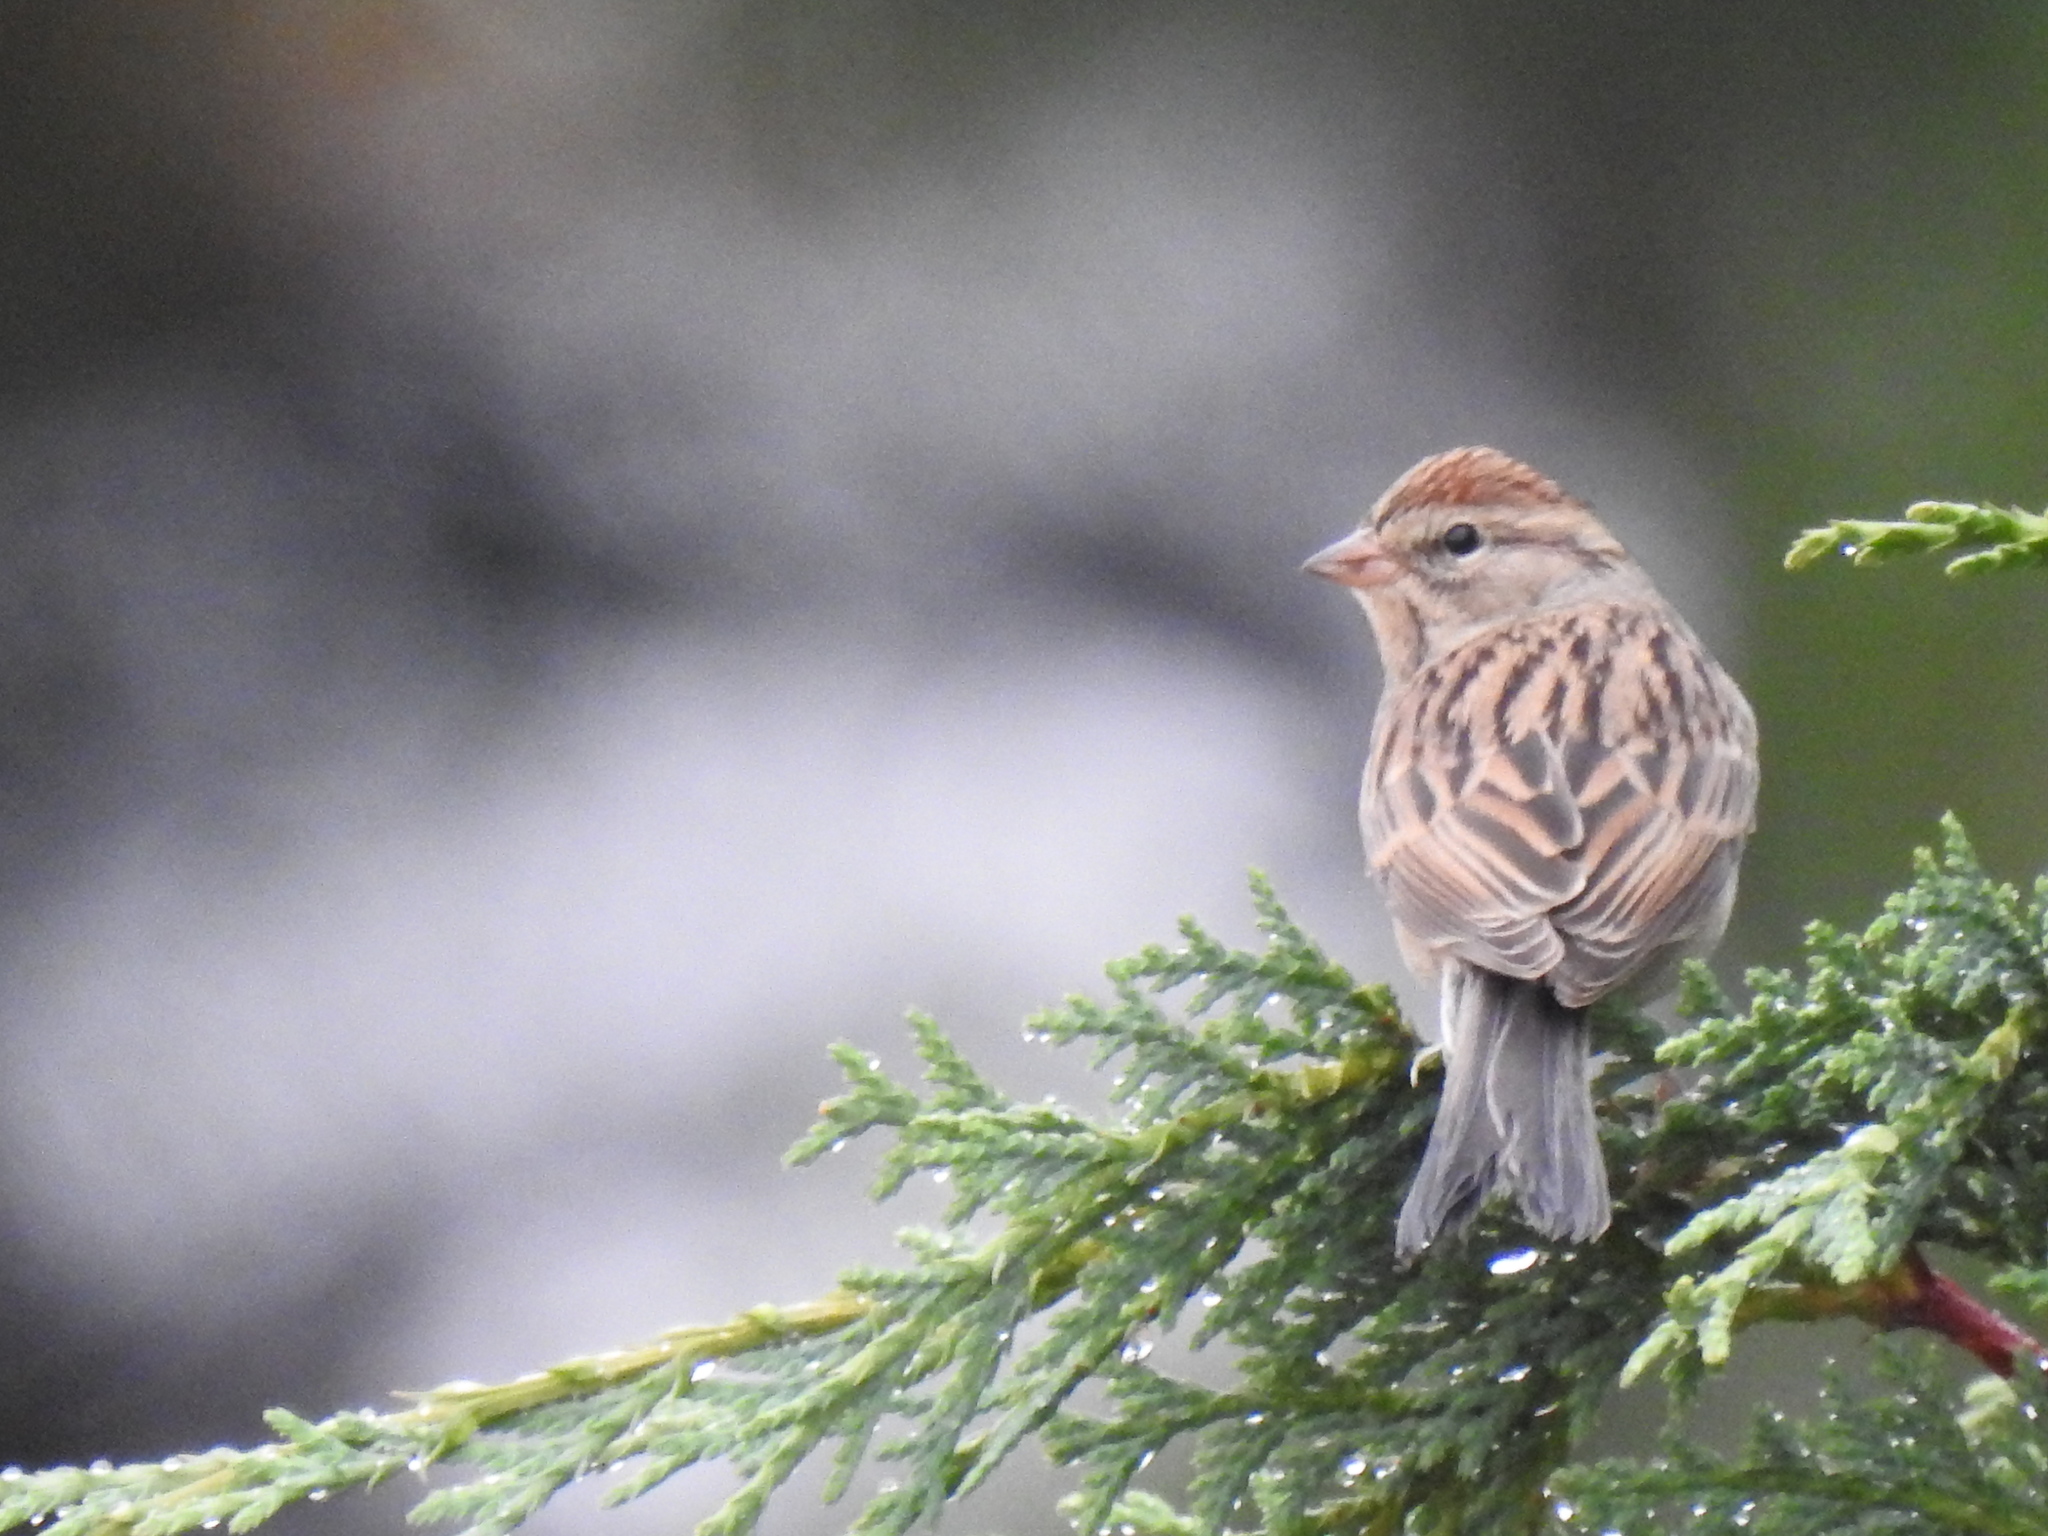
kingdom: Animalia
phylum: Chordata
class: Aves
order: Passeriformes
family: Passerellidae
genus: Spizella
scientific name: Spizella passerina
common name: Chipping sparrow
